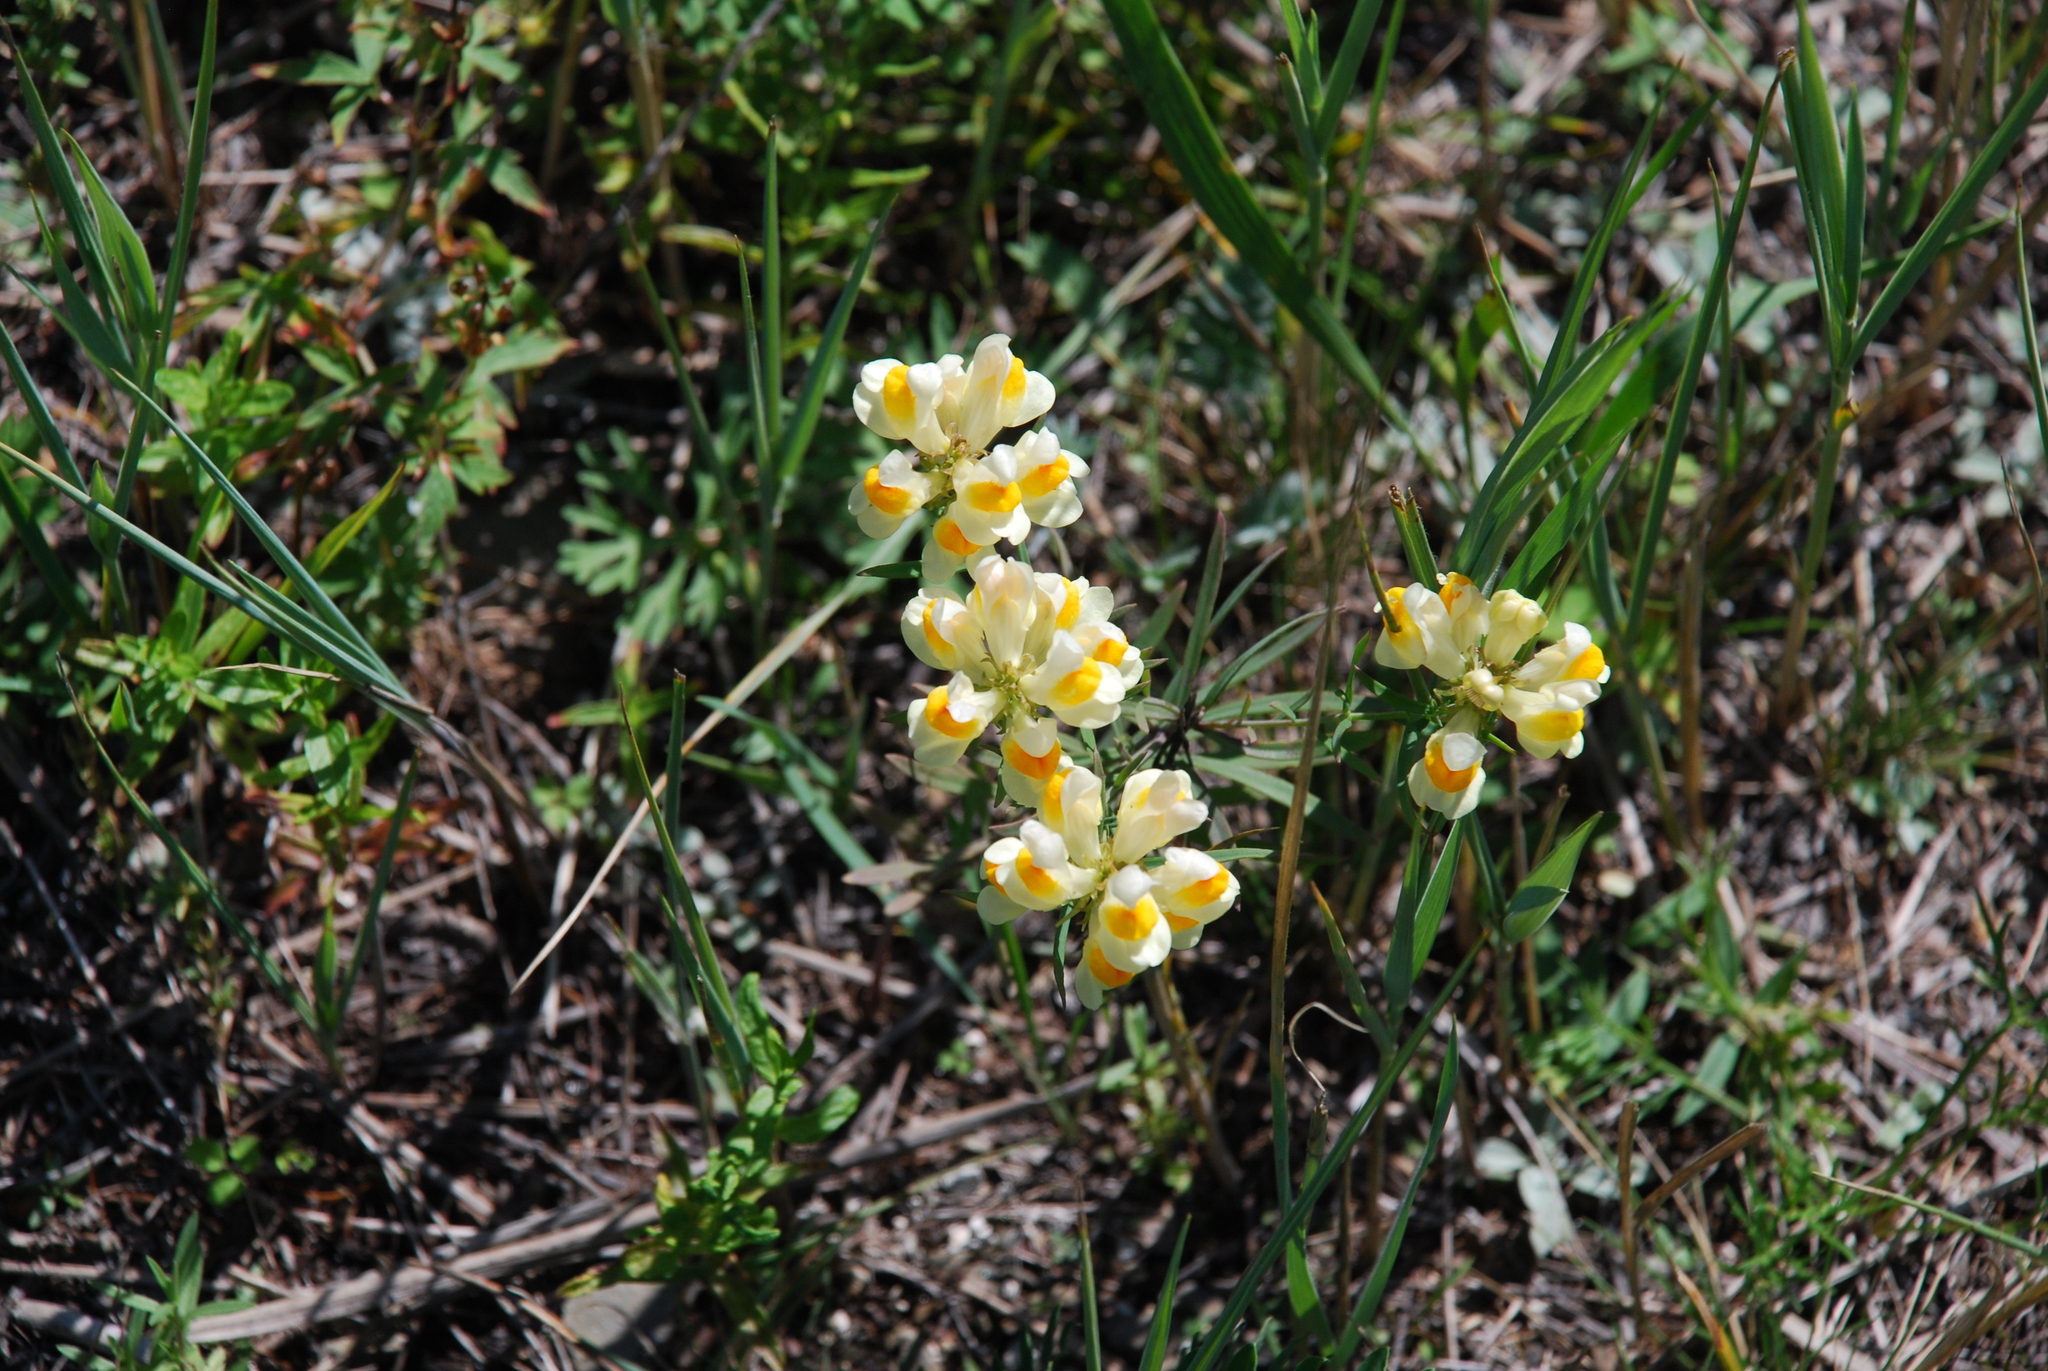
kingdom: Plantae
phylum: Tracheophyta
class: Magnoliopsida
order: Lamiales
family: Plantaginaceae
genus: Linaria
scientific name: Linaria acutiloba
